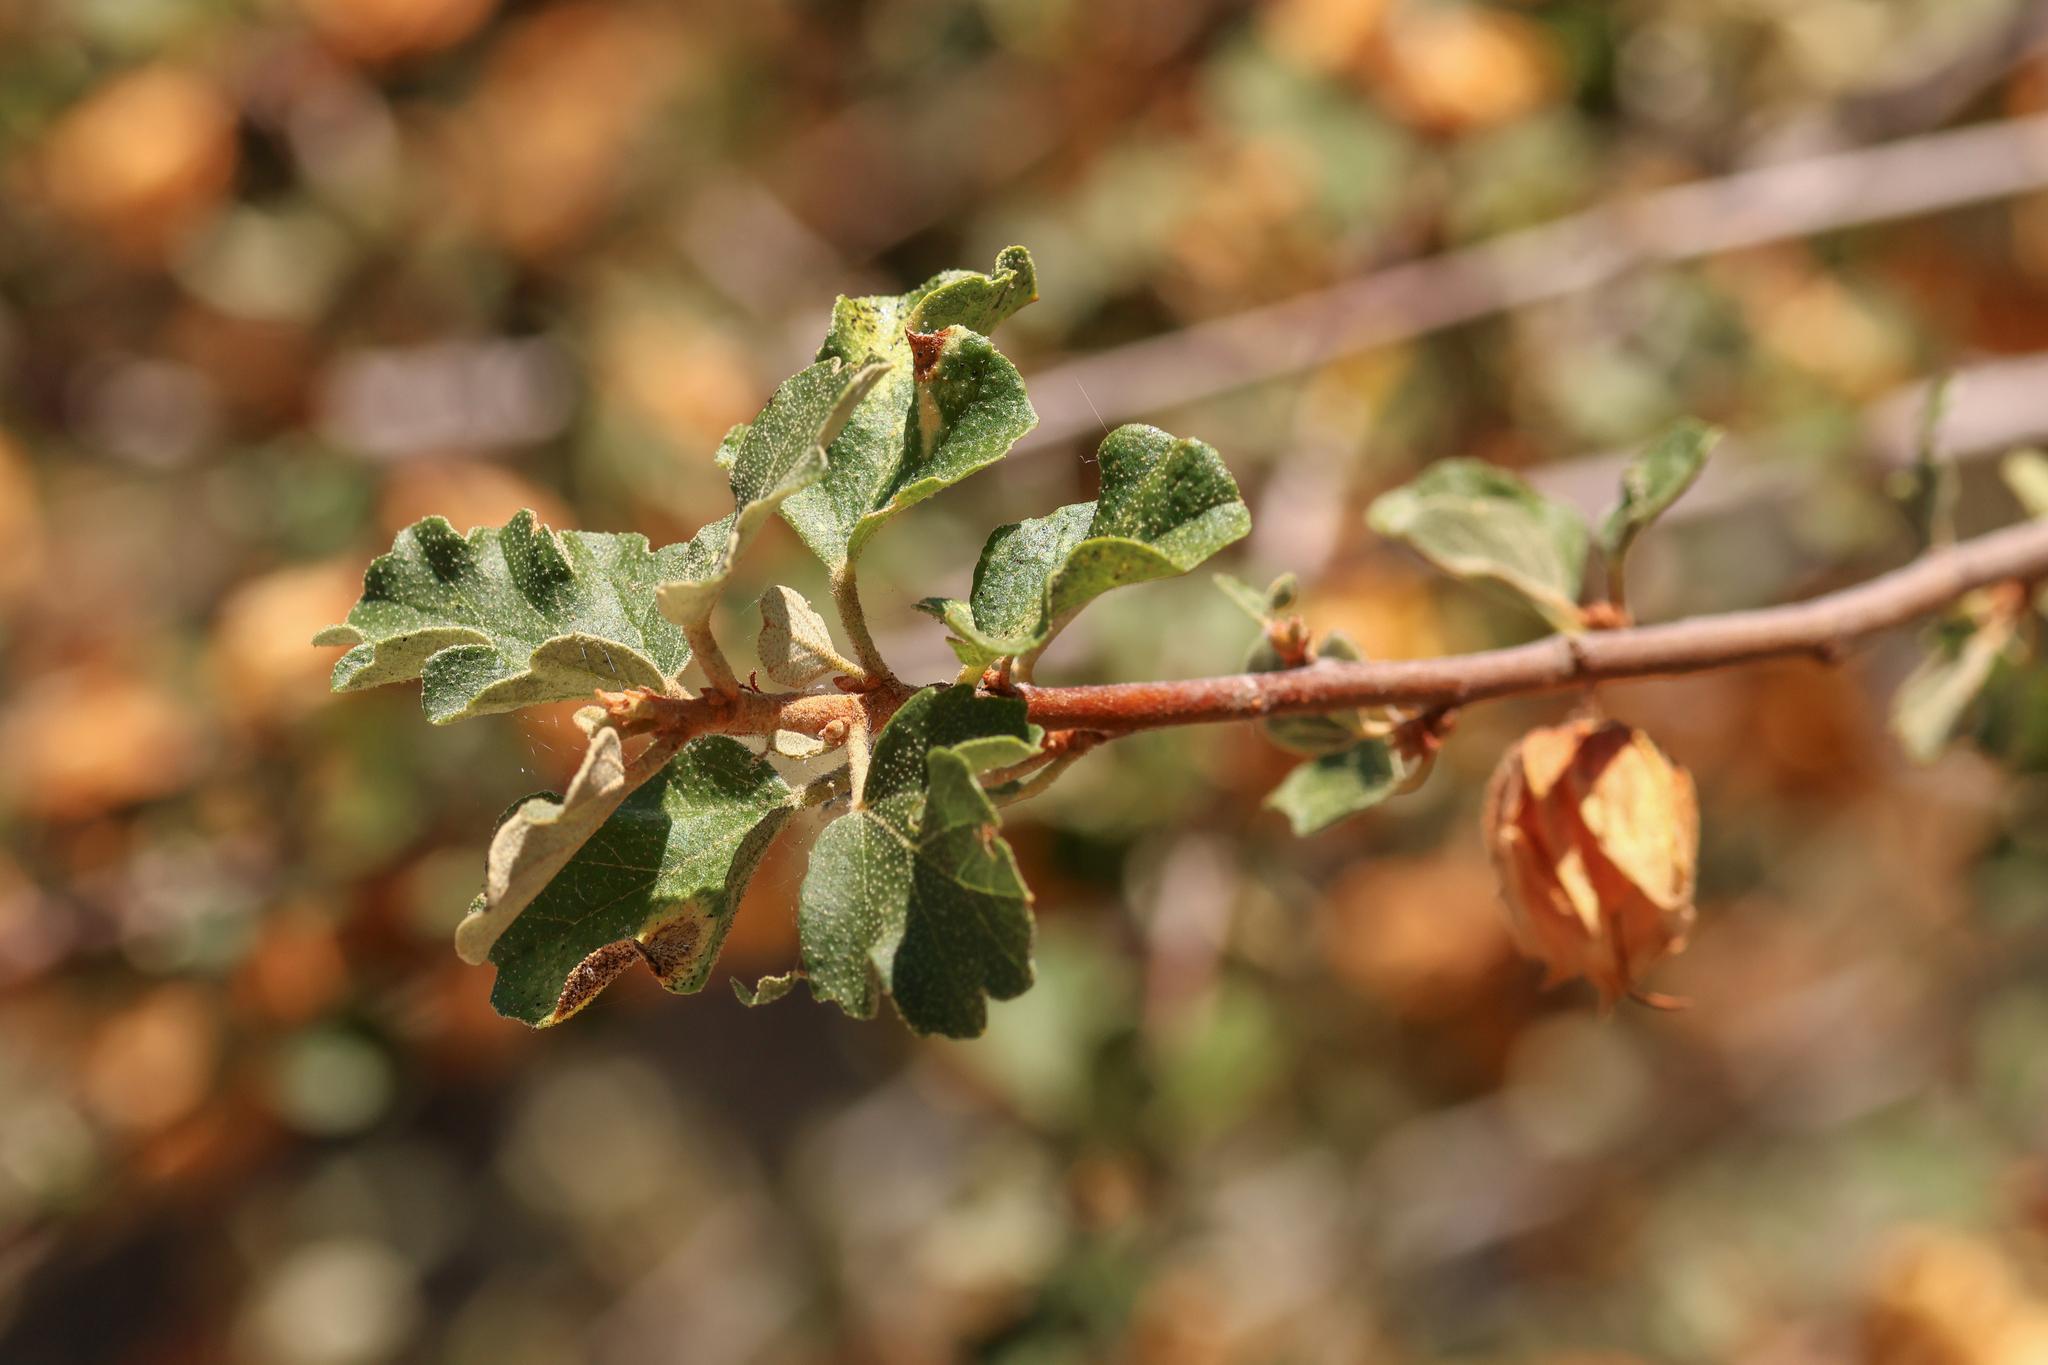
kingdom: Plantae
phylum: Tracheophyta
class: Magnoliopsida
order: Malvales
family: Malvaceae
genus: Fremontodendron
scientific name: Fremontodendron californicum
